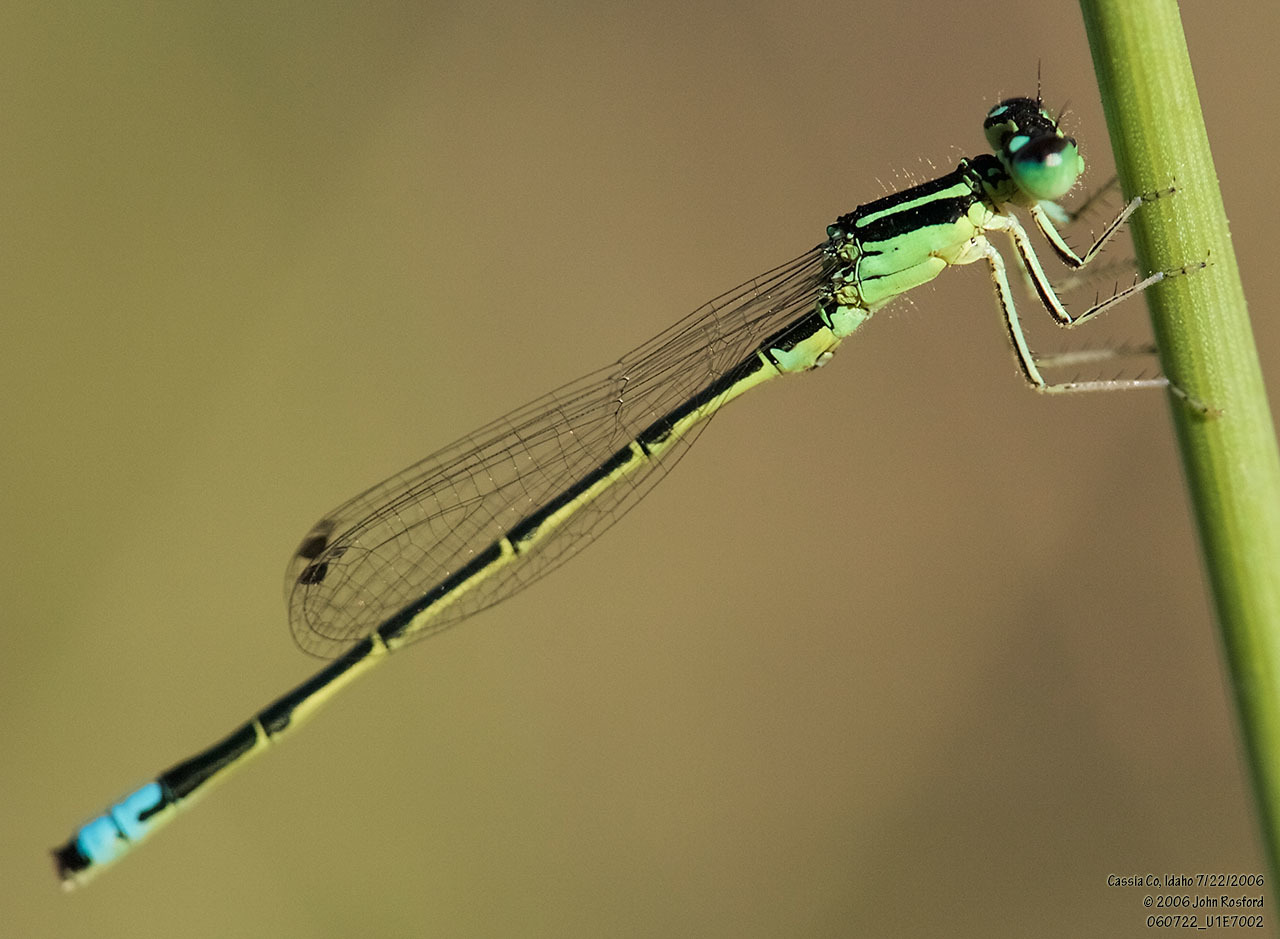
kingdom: Animalia
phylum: Arthropoda
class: Insecta
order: Odonata
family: Coenagrionidae
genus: Ischnura
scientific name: Ischnura perparva
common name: Western forktail
